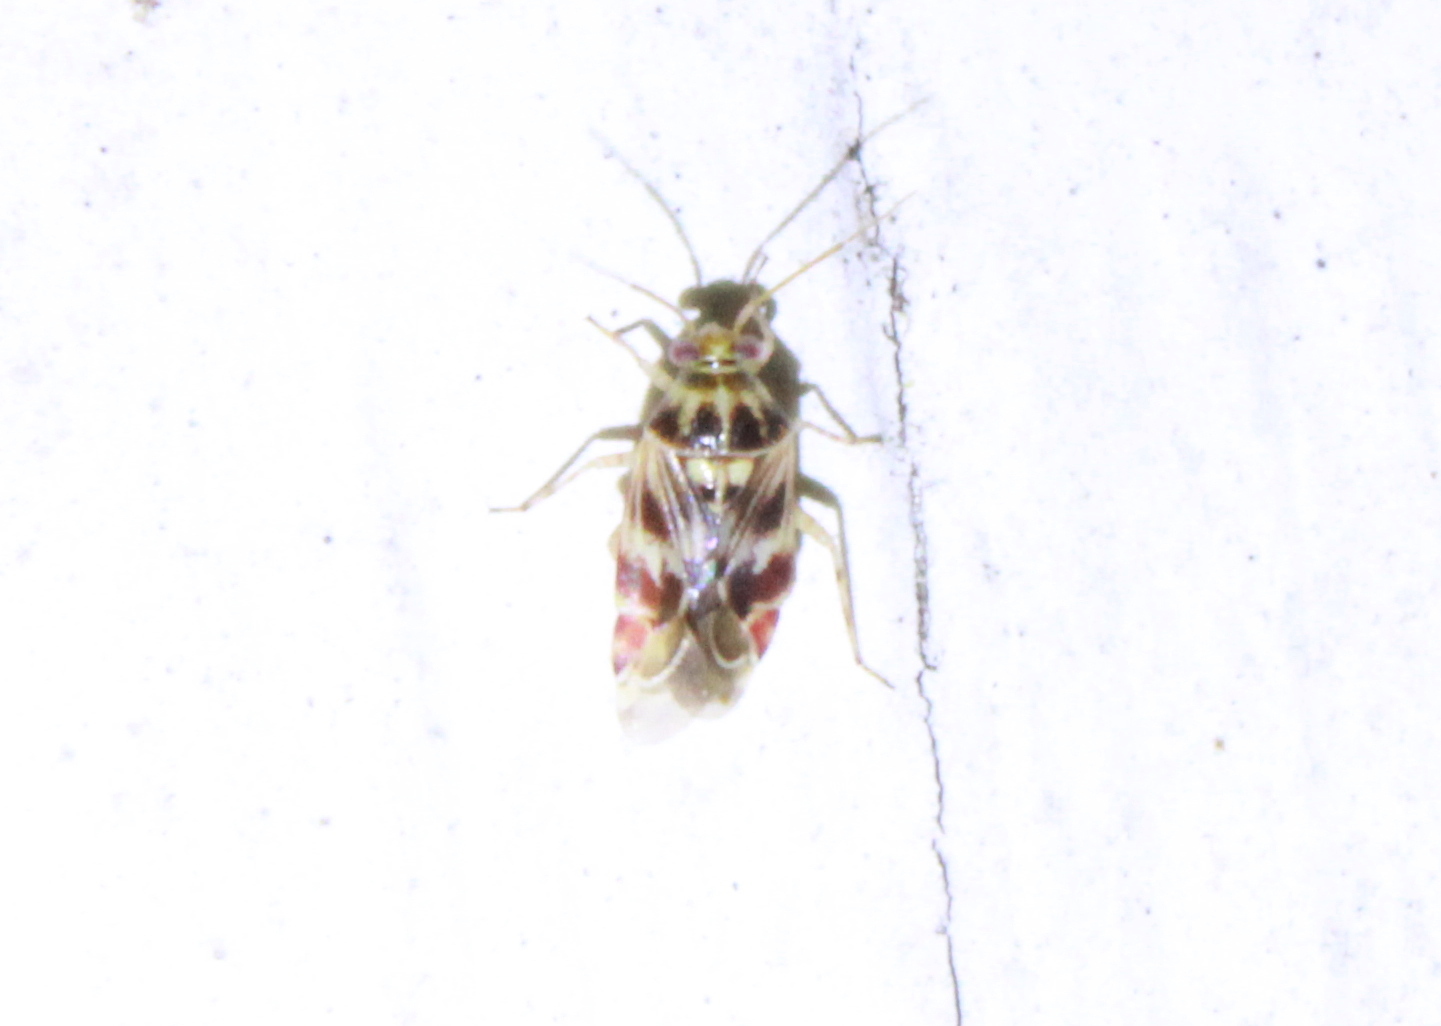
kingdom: Animalia
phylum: Arthropoda
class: Insecta
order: Hemiptera
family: Miridae
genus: Tropidosteptes
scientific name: Tropidosteptes quercicola
